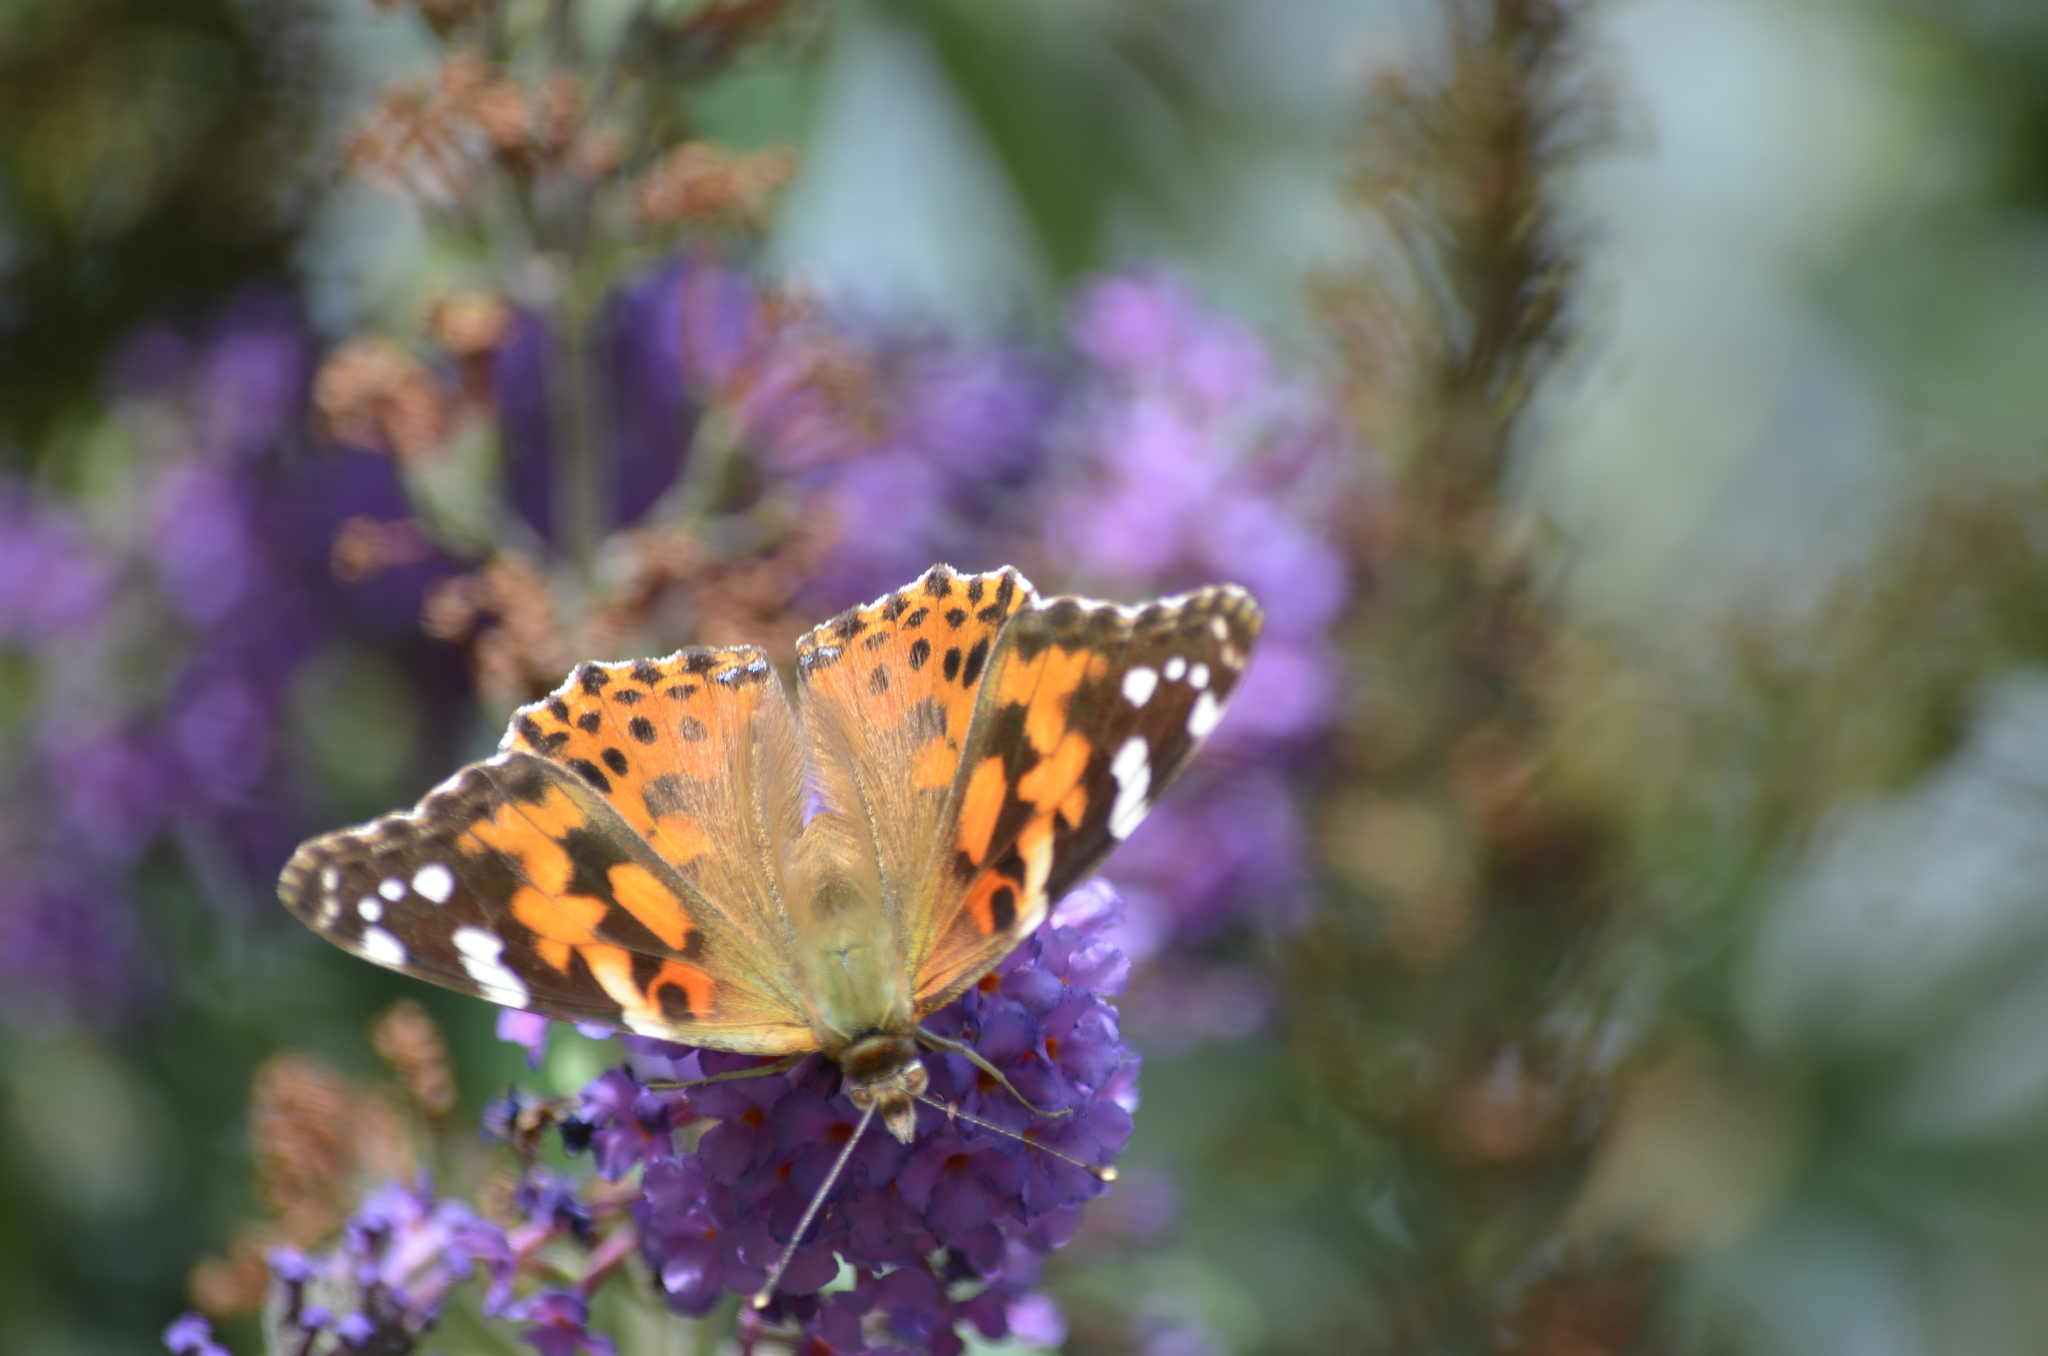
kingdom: Animalia
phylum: Arthropoda
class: Insecta
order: Lepidoptera
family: Nymphalidae
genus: Vanessa
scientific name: Vanessa cardui
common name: Painted lady
